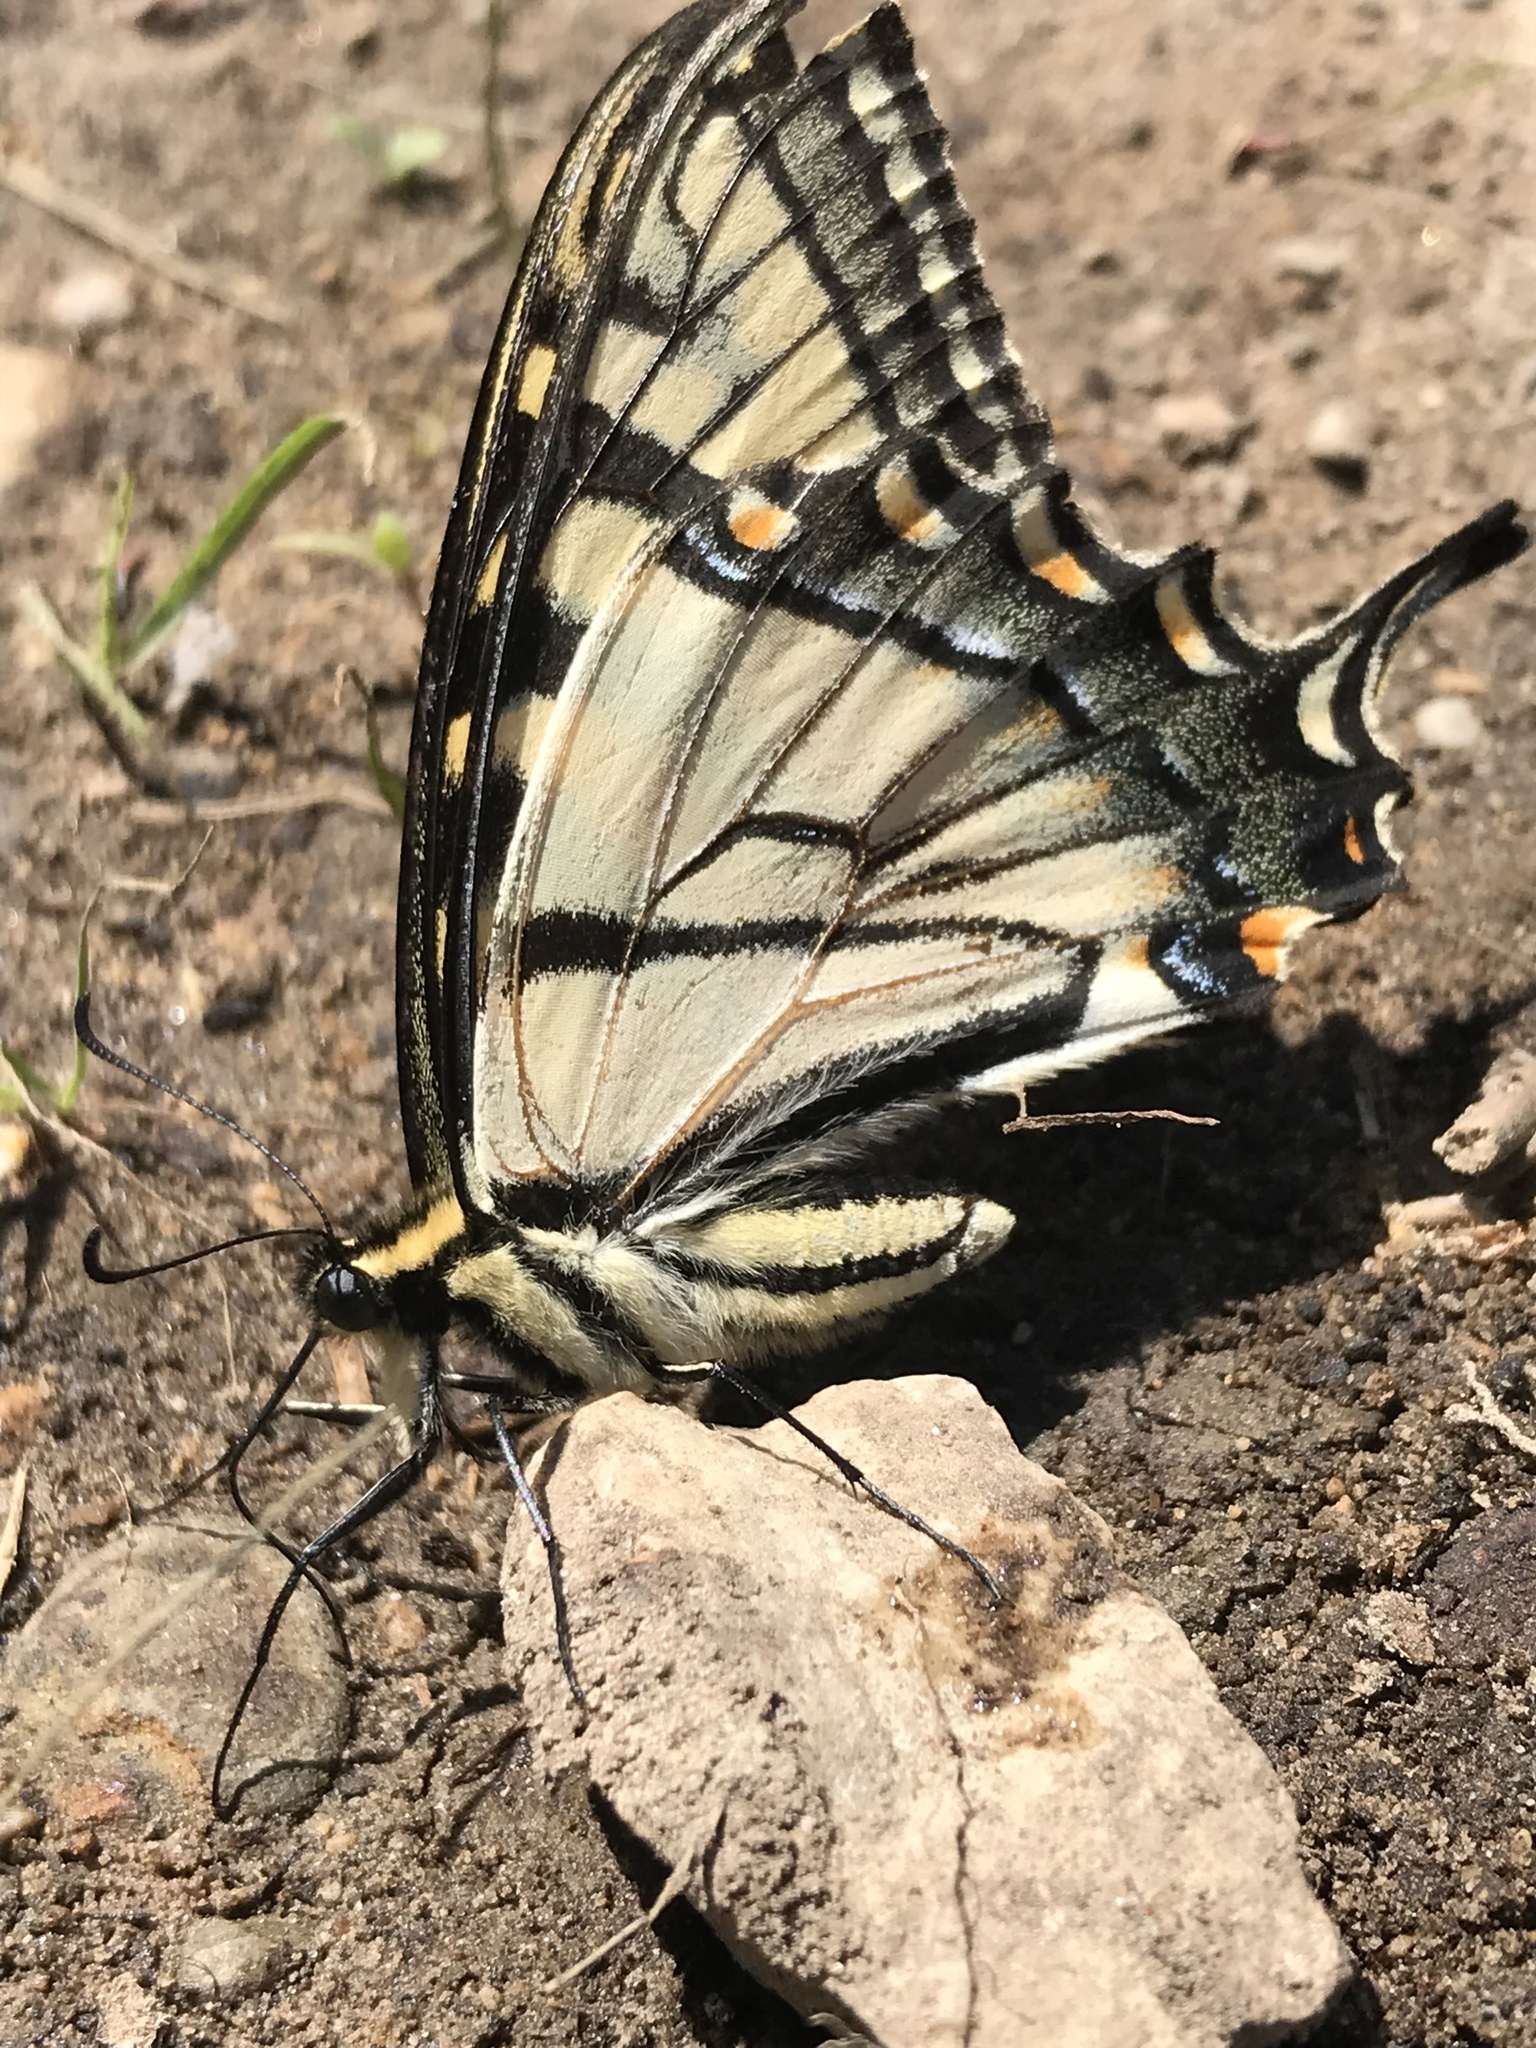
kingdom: Animalia
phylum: Arthropoda
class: Insecta
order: Lepidoptera
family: Papilionidae
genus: Papilio
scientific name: Papilio
